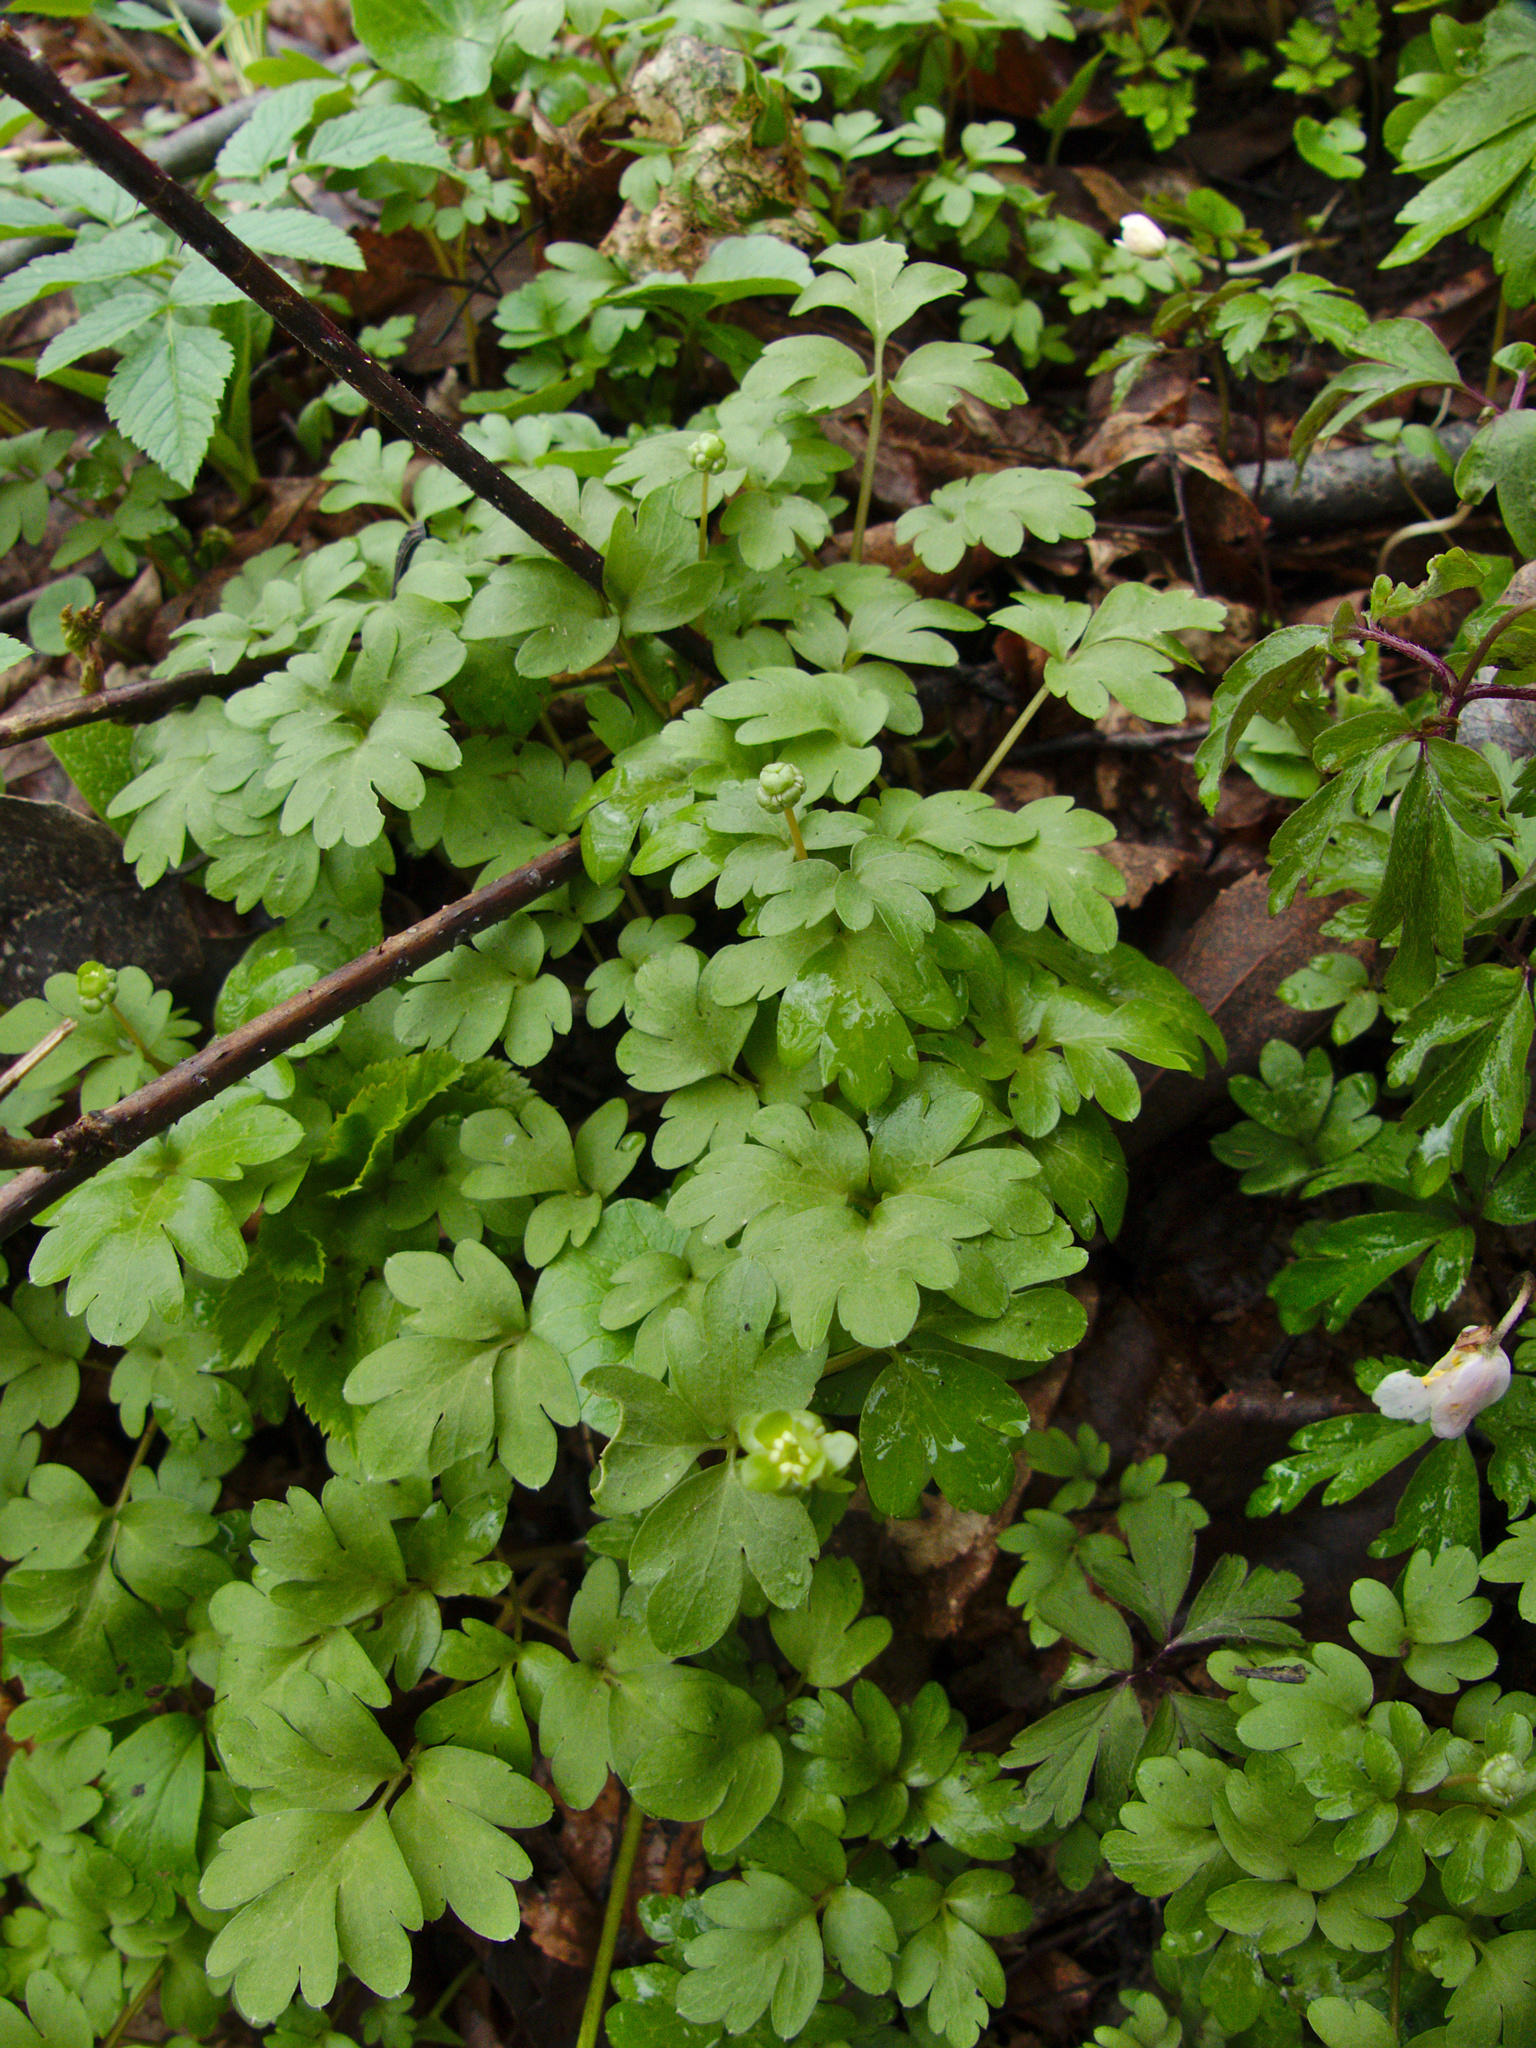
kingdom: Plantae
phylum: Tracheophyta
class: Magnoliopsida
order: Dipsacales
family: Viburnaceae
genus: Adoxa
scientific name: Adoxa moschatellina
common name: Moschatel
